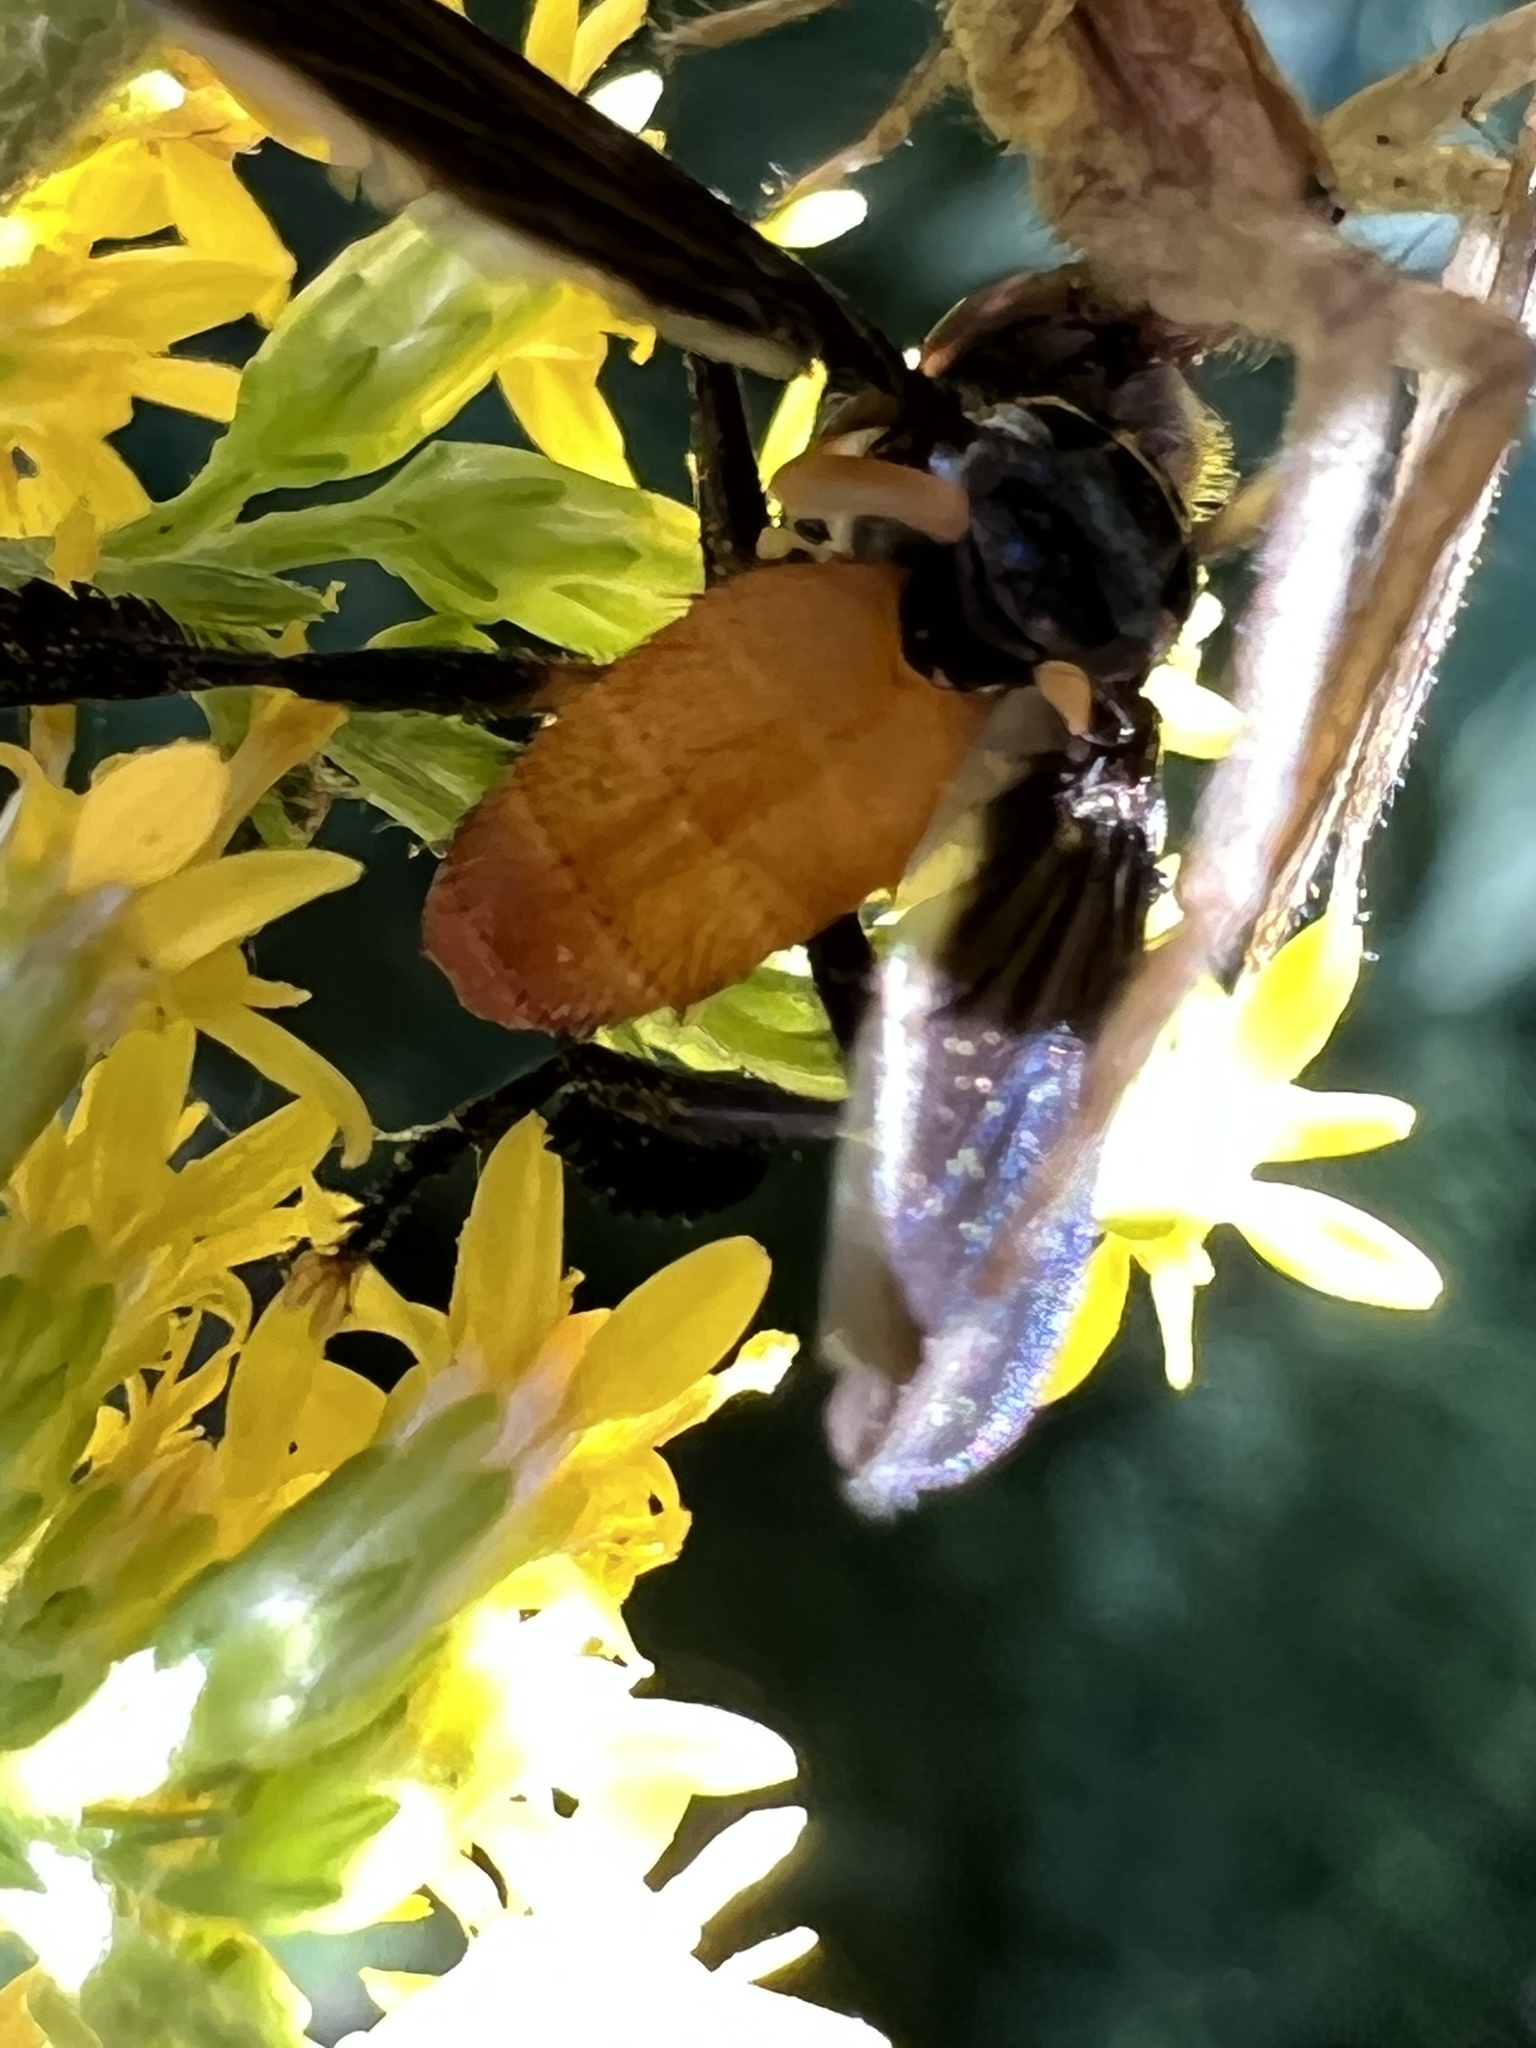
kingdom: Animalia
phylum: Arthropoda
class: Insecta
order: Diptera
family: Tachinidae
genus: Trichopoda
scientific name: Trichopoda pennipes
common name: Tachinid fly
